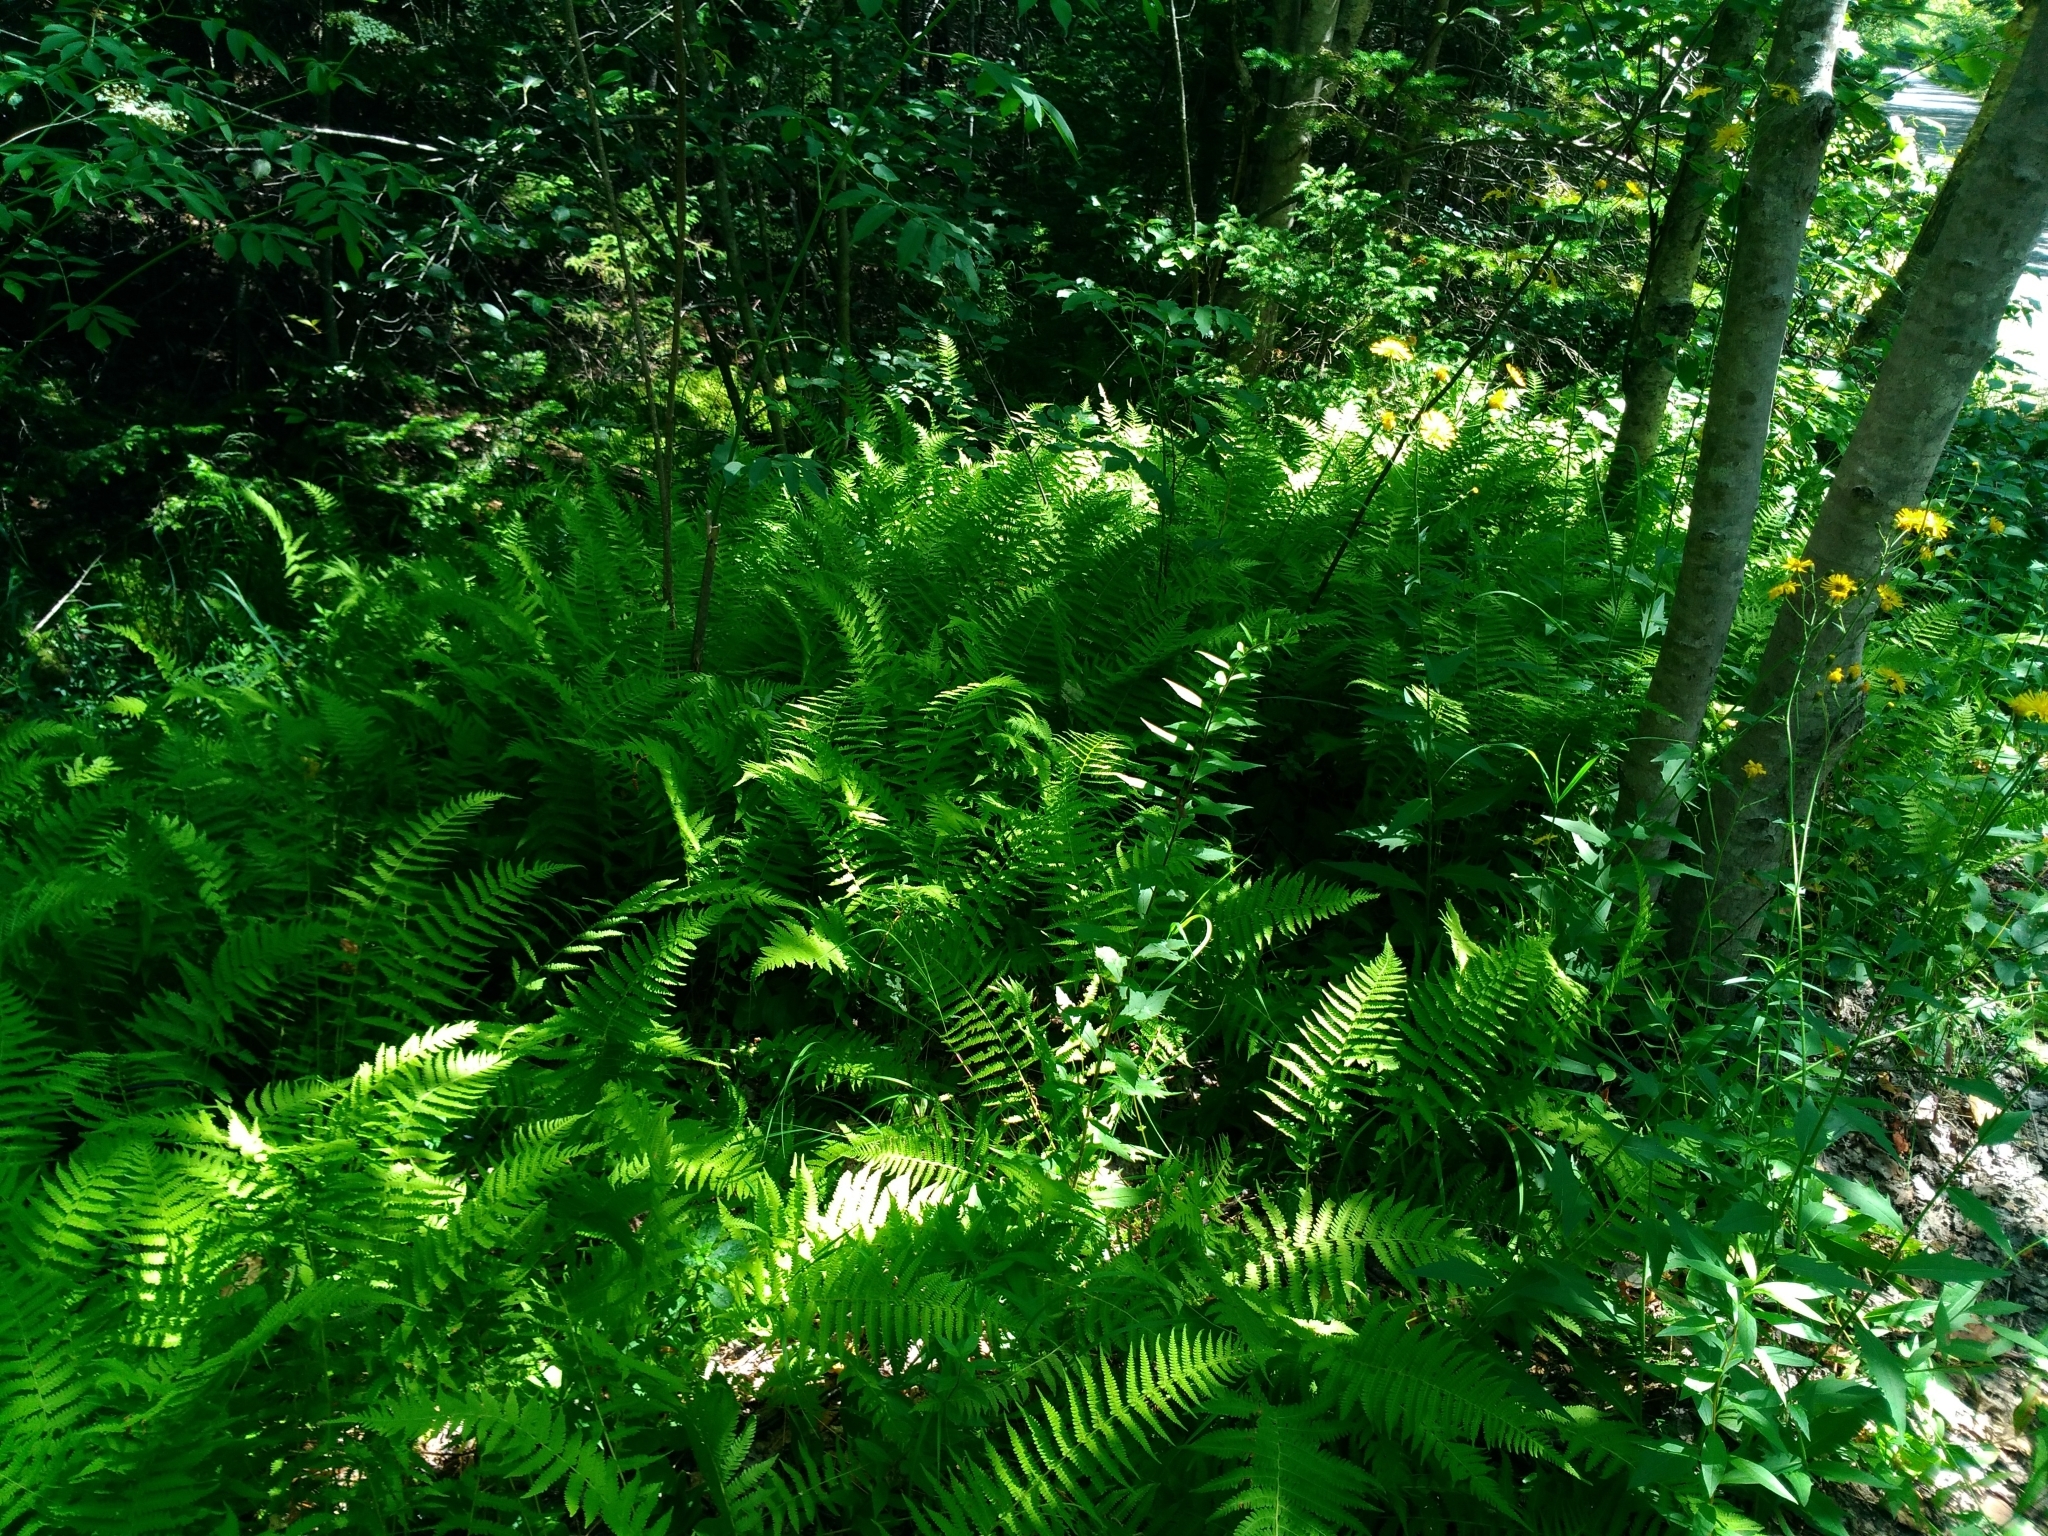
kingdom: Plantae
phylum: Tracheophyta
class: Polypodiopsida
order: Polypodiales
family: Thelypteridaceae
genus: Amauropelta
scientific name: Amauropelta noveboracensis
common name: New york fern
